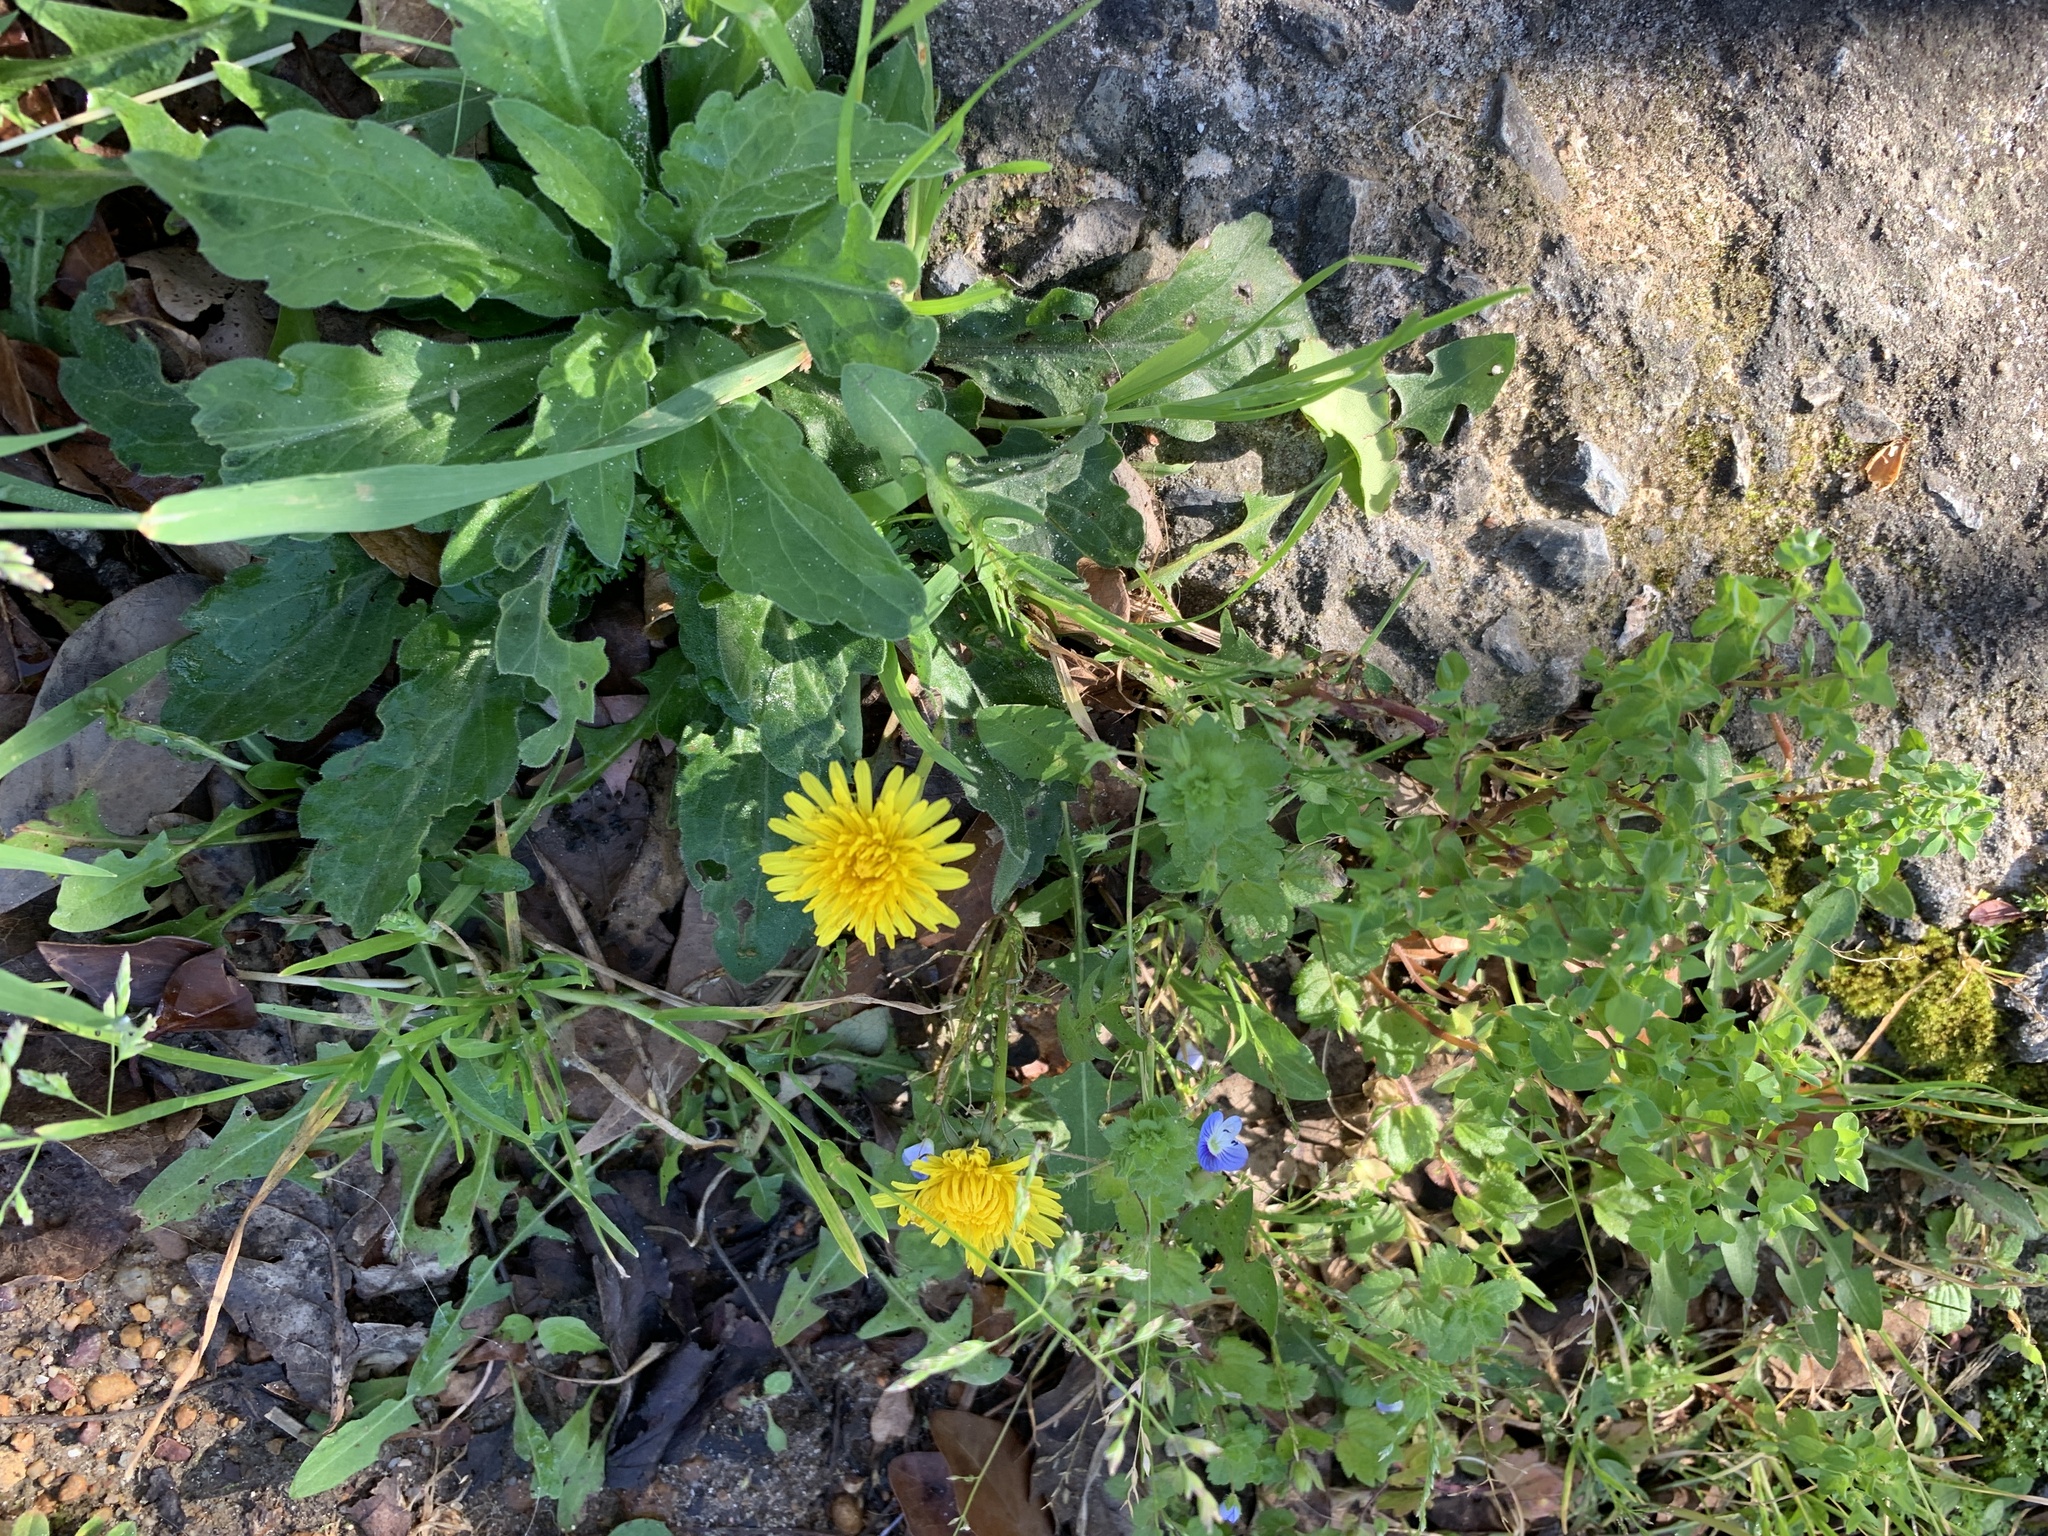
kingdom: Plantae
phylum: Tracheophyta
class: Magnoliopsida
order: Asterales
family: Asteraceae
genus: Taraxacum
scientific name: Taraxacum officinale
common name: Common dandelion
